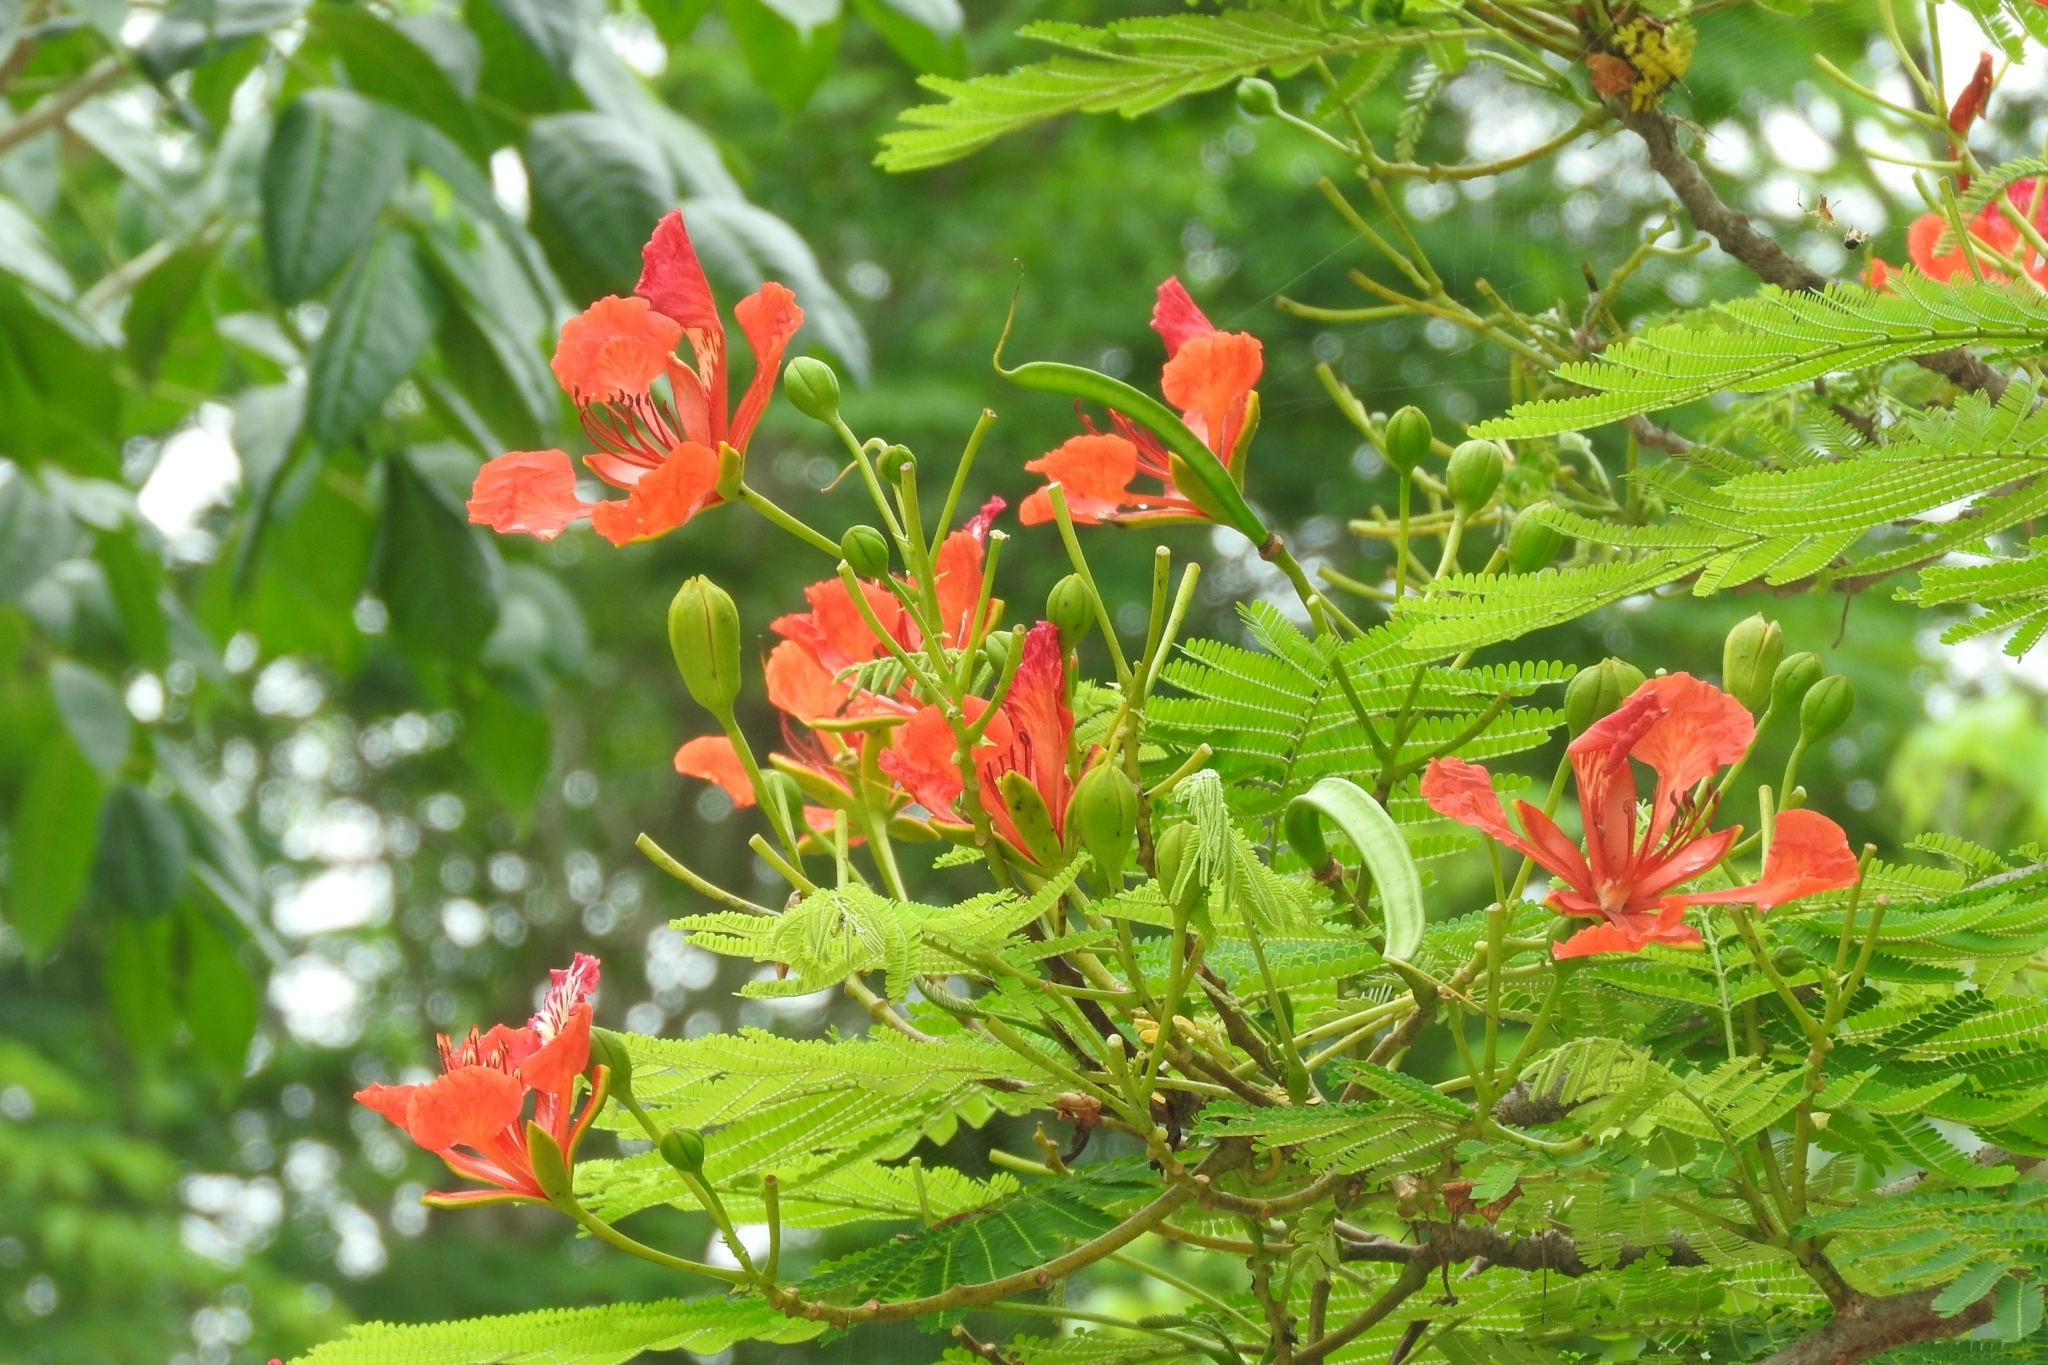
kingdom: Plantae
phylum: Tracheophyta
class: Magnoliopsida
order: Fabales
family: Fabaceae
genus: Delonix
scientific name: Delonix regia
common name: Royal poinciana
